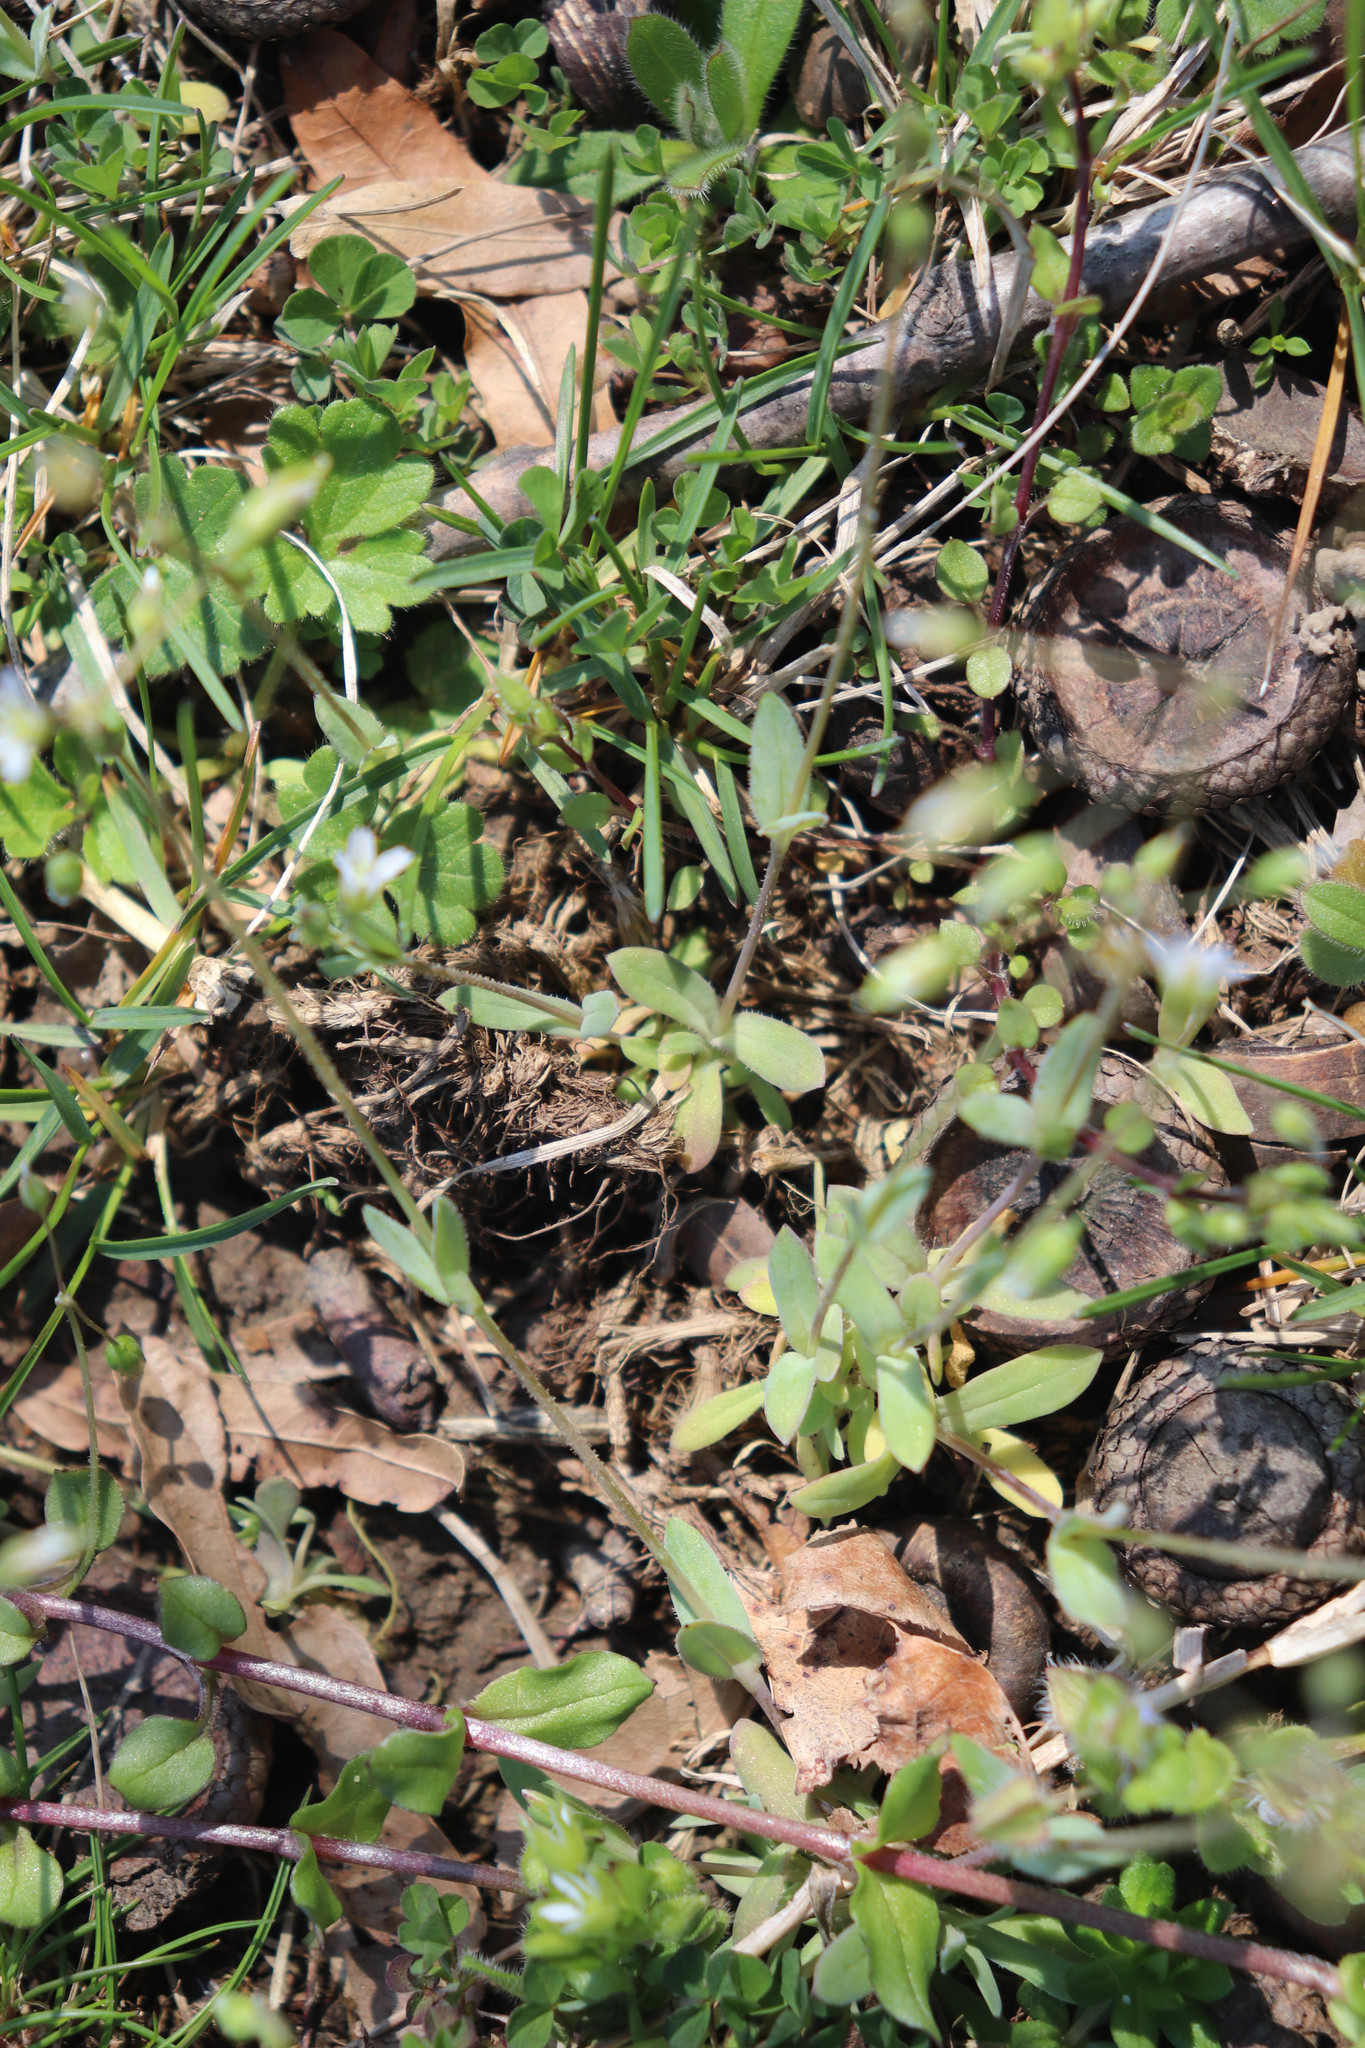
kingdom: Plantae
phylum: Tracheophyta
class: Magnoliopsida
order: Caryophyllales
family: Caryophyllaceae
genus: Holosteum
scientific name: Holosteum umbellatum
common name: Jagged chickweed
